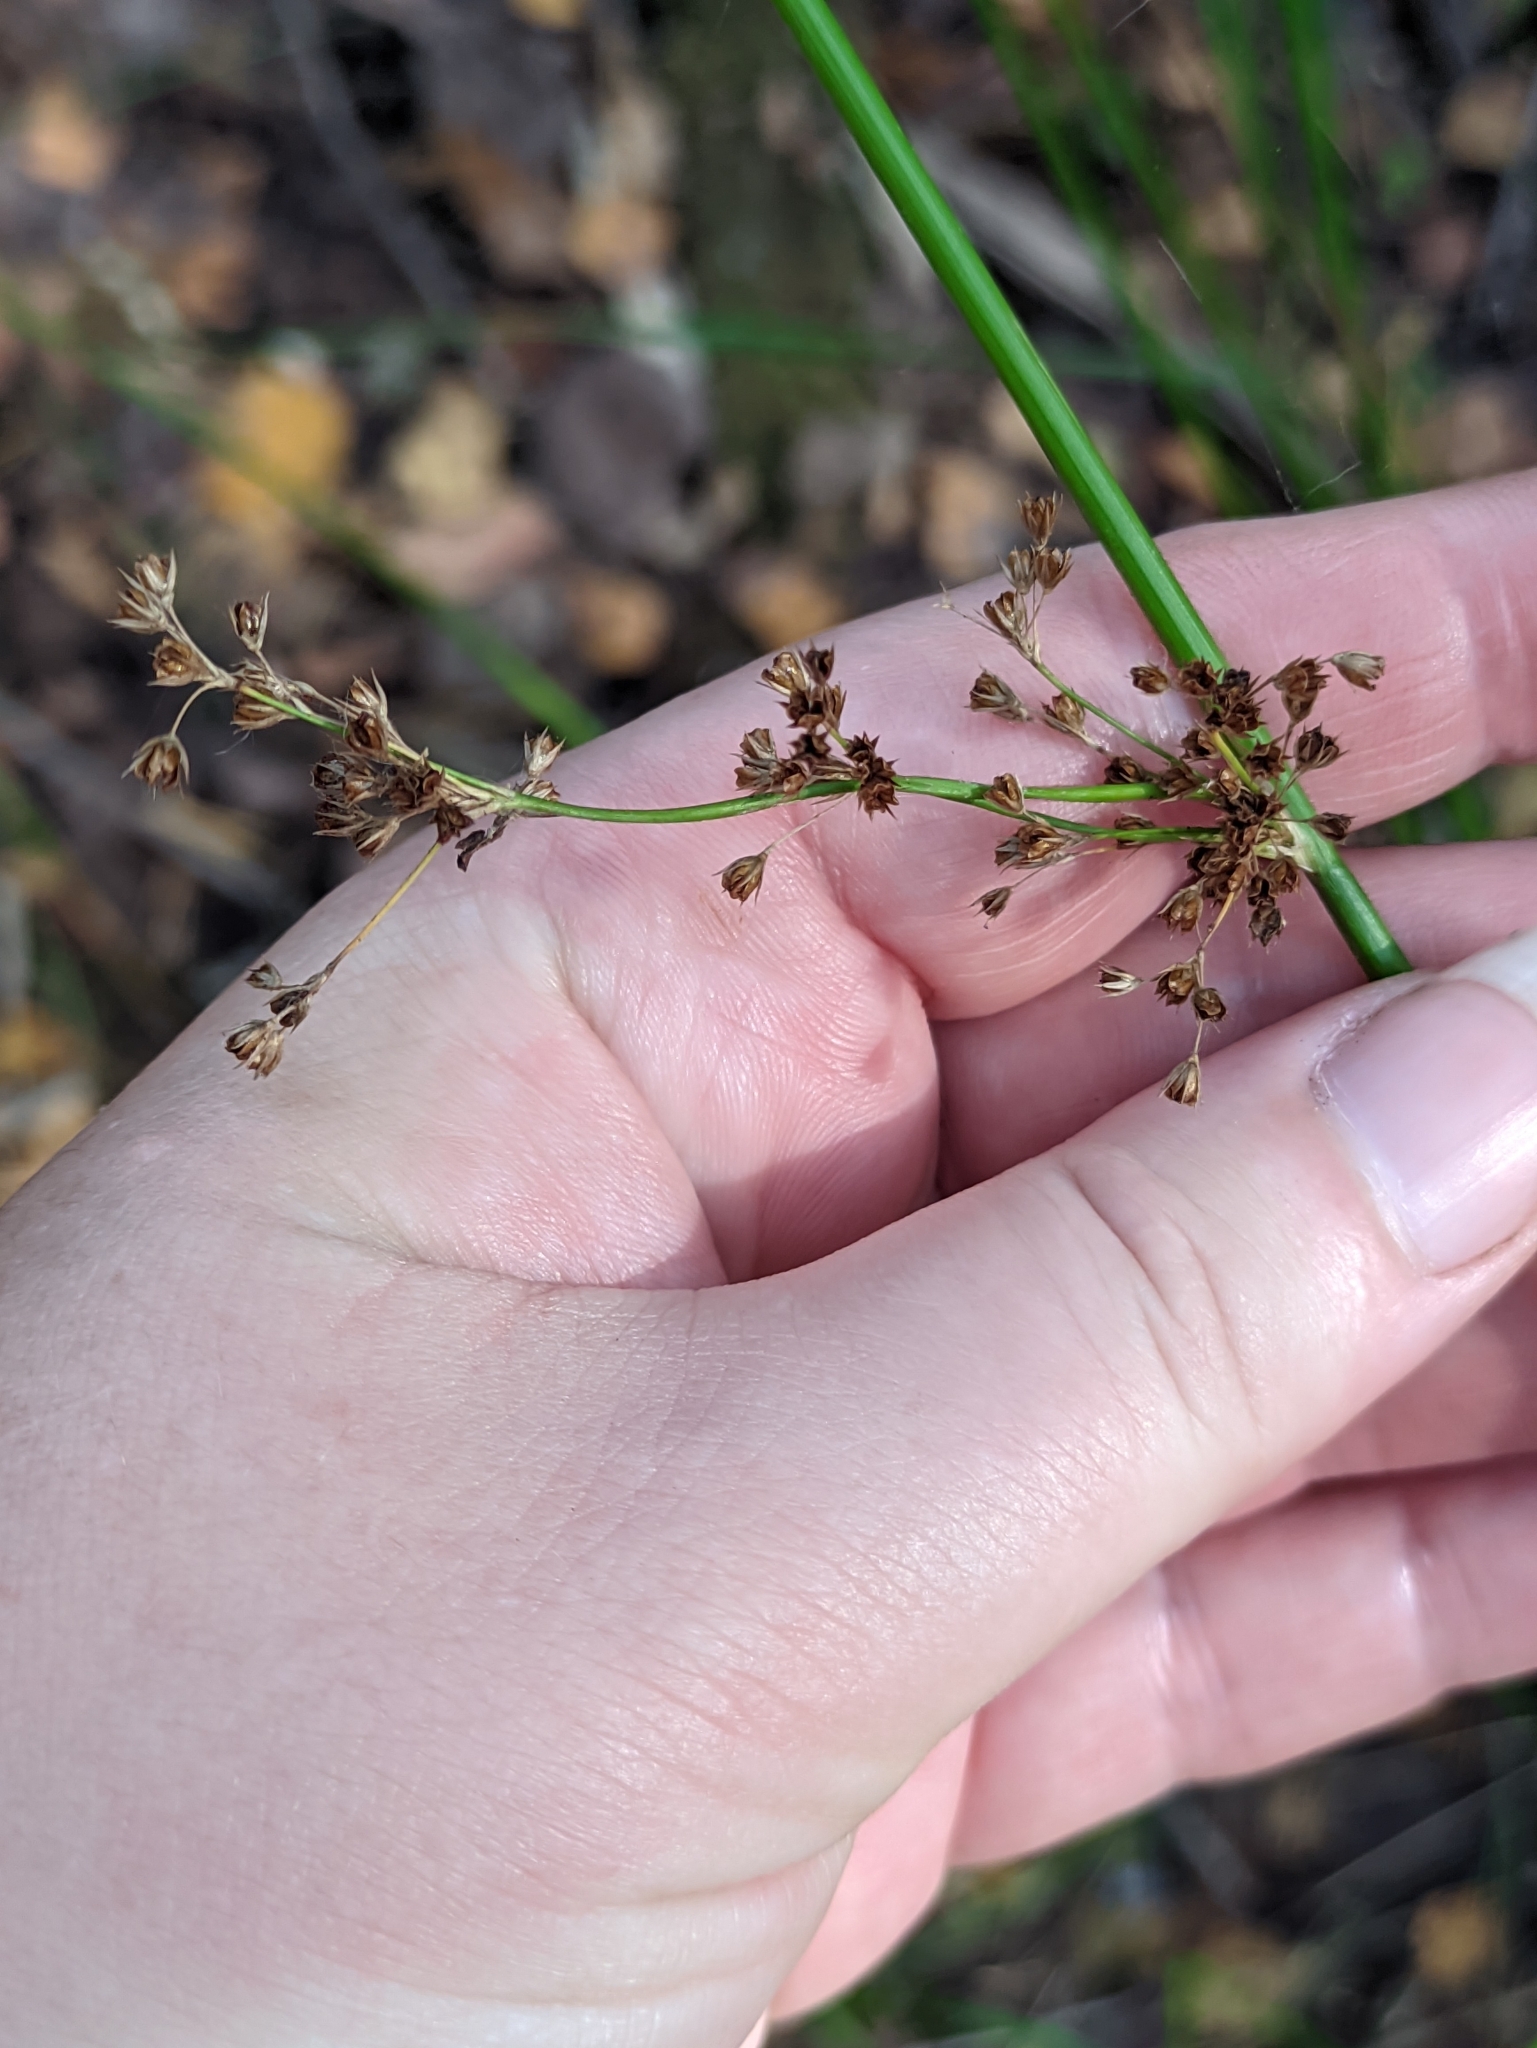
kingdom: Plantae
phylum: Tracheophyta
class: Liliopsida
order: Poales
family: Juncaceae
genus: Juncus
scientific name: Juncus effusus
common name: Soft rush
